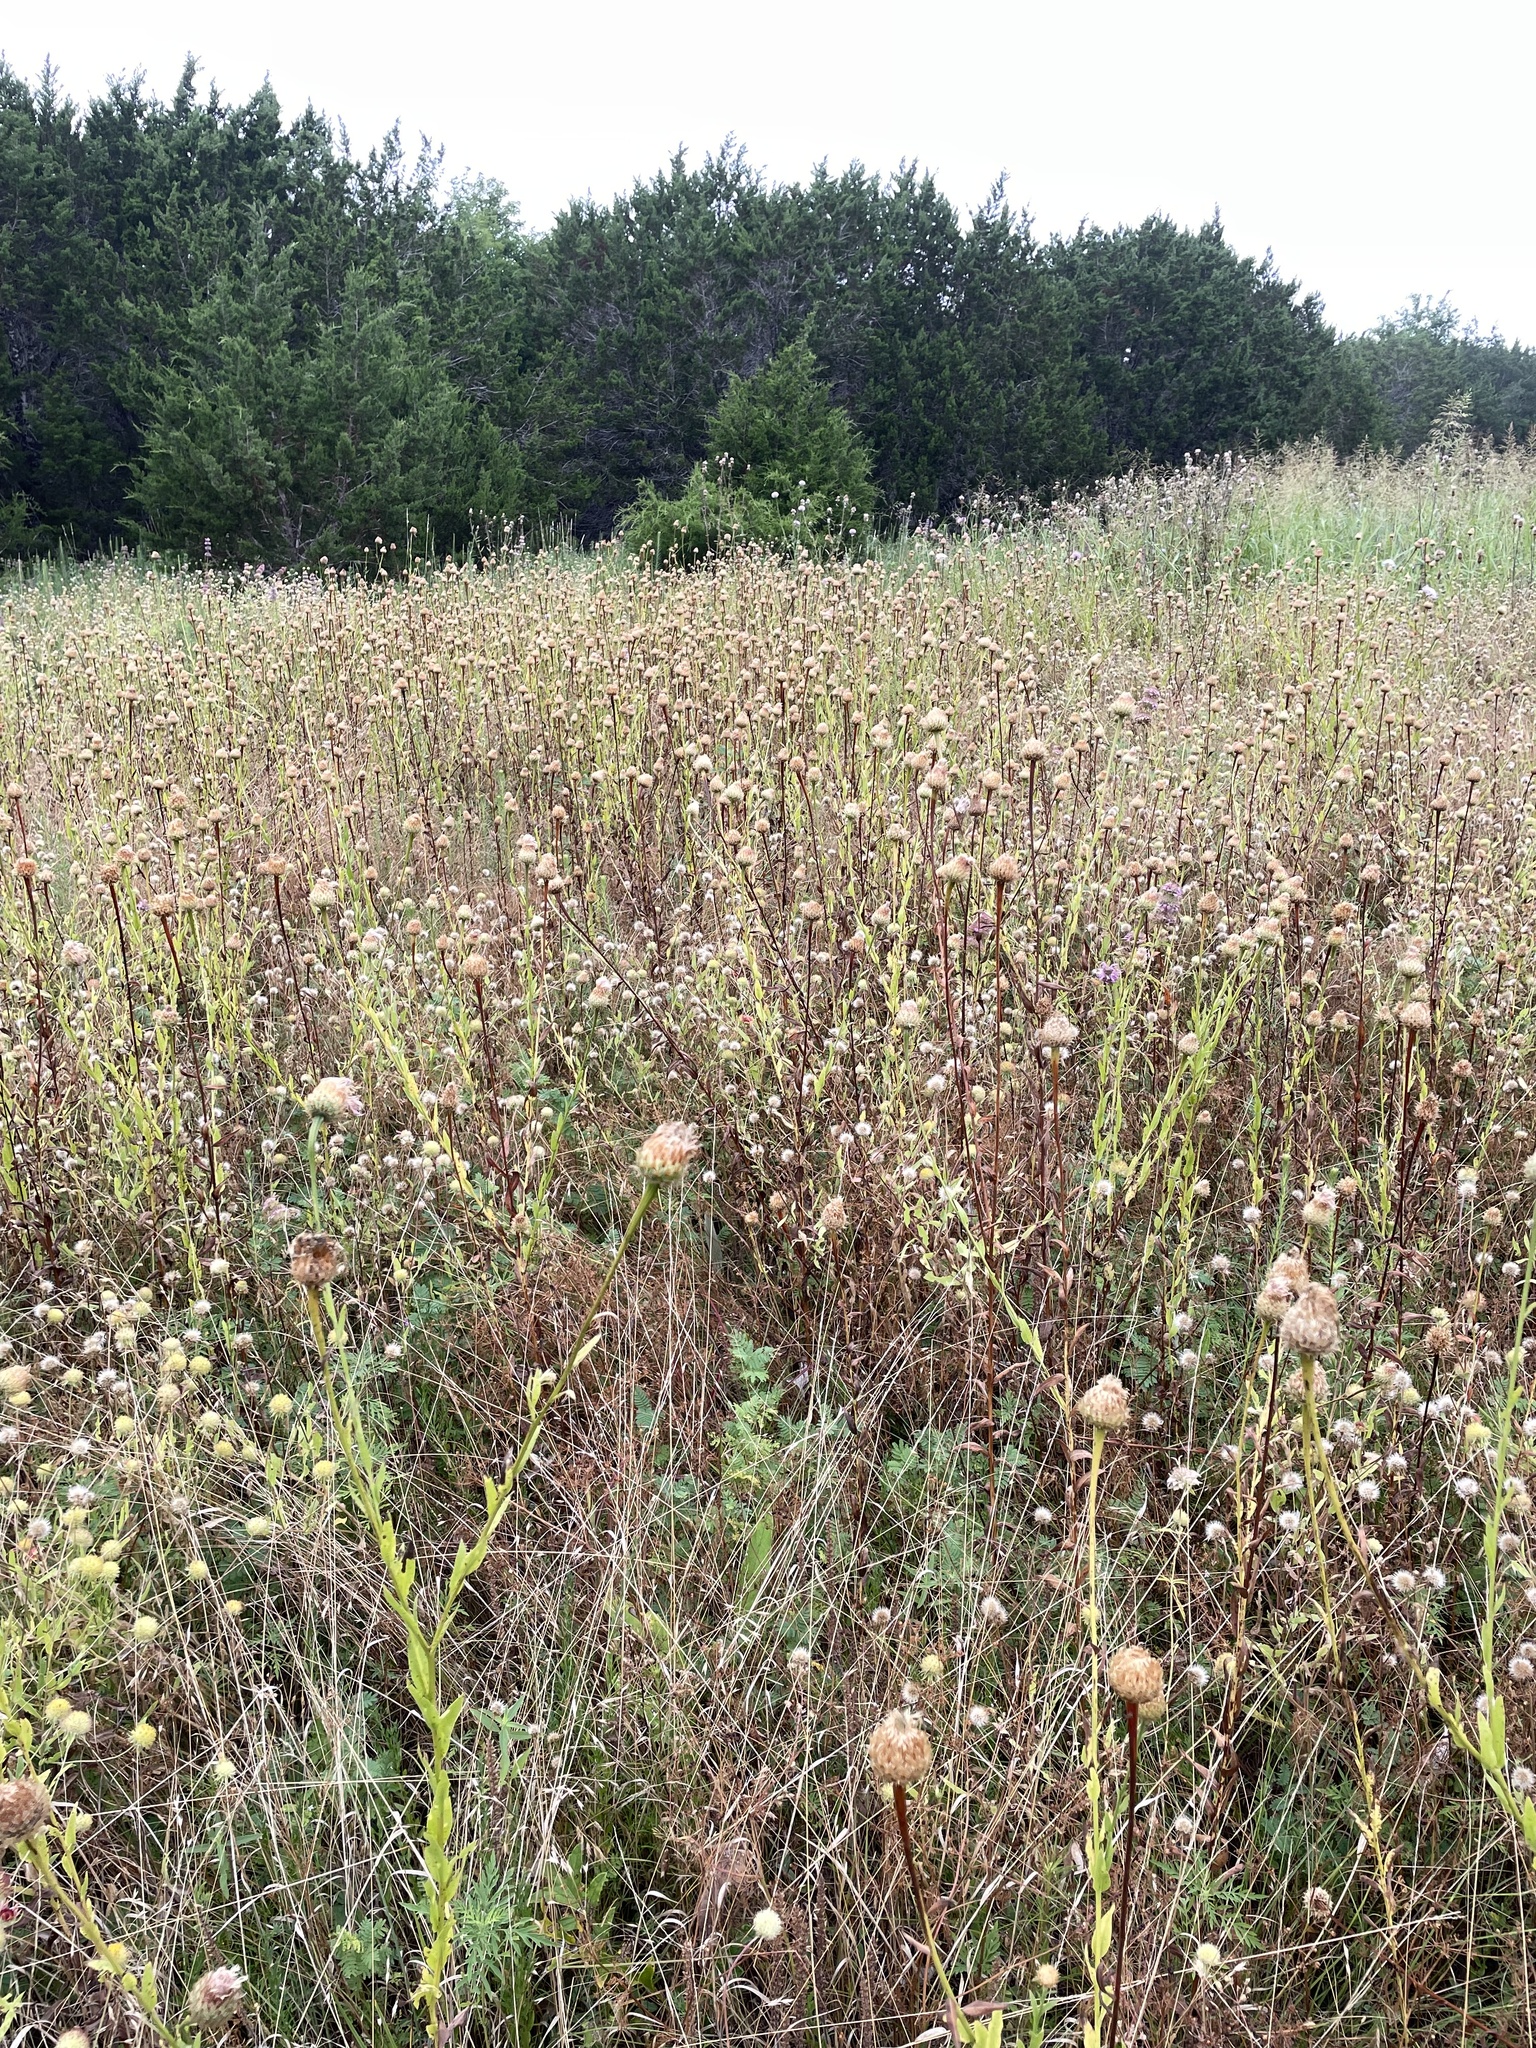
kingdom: Plantae
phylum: Tracheophyta
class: Magnoliopsida
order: Asterales
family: Asteraceae
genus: Plectocephalus
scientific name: Plectocephalus americanus
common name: American basket-flower
